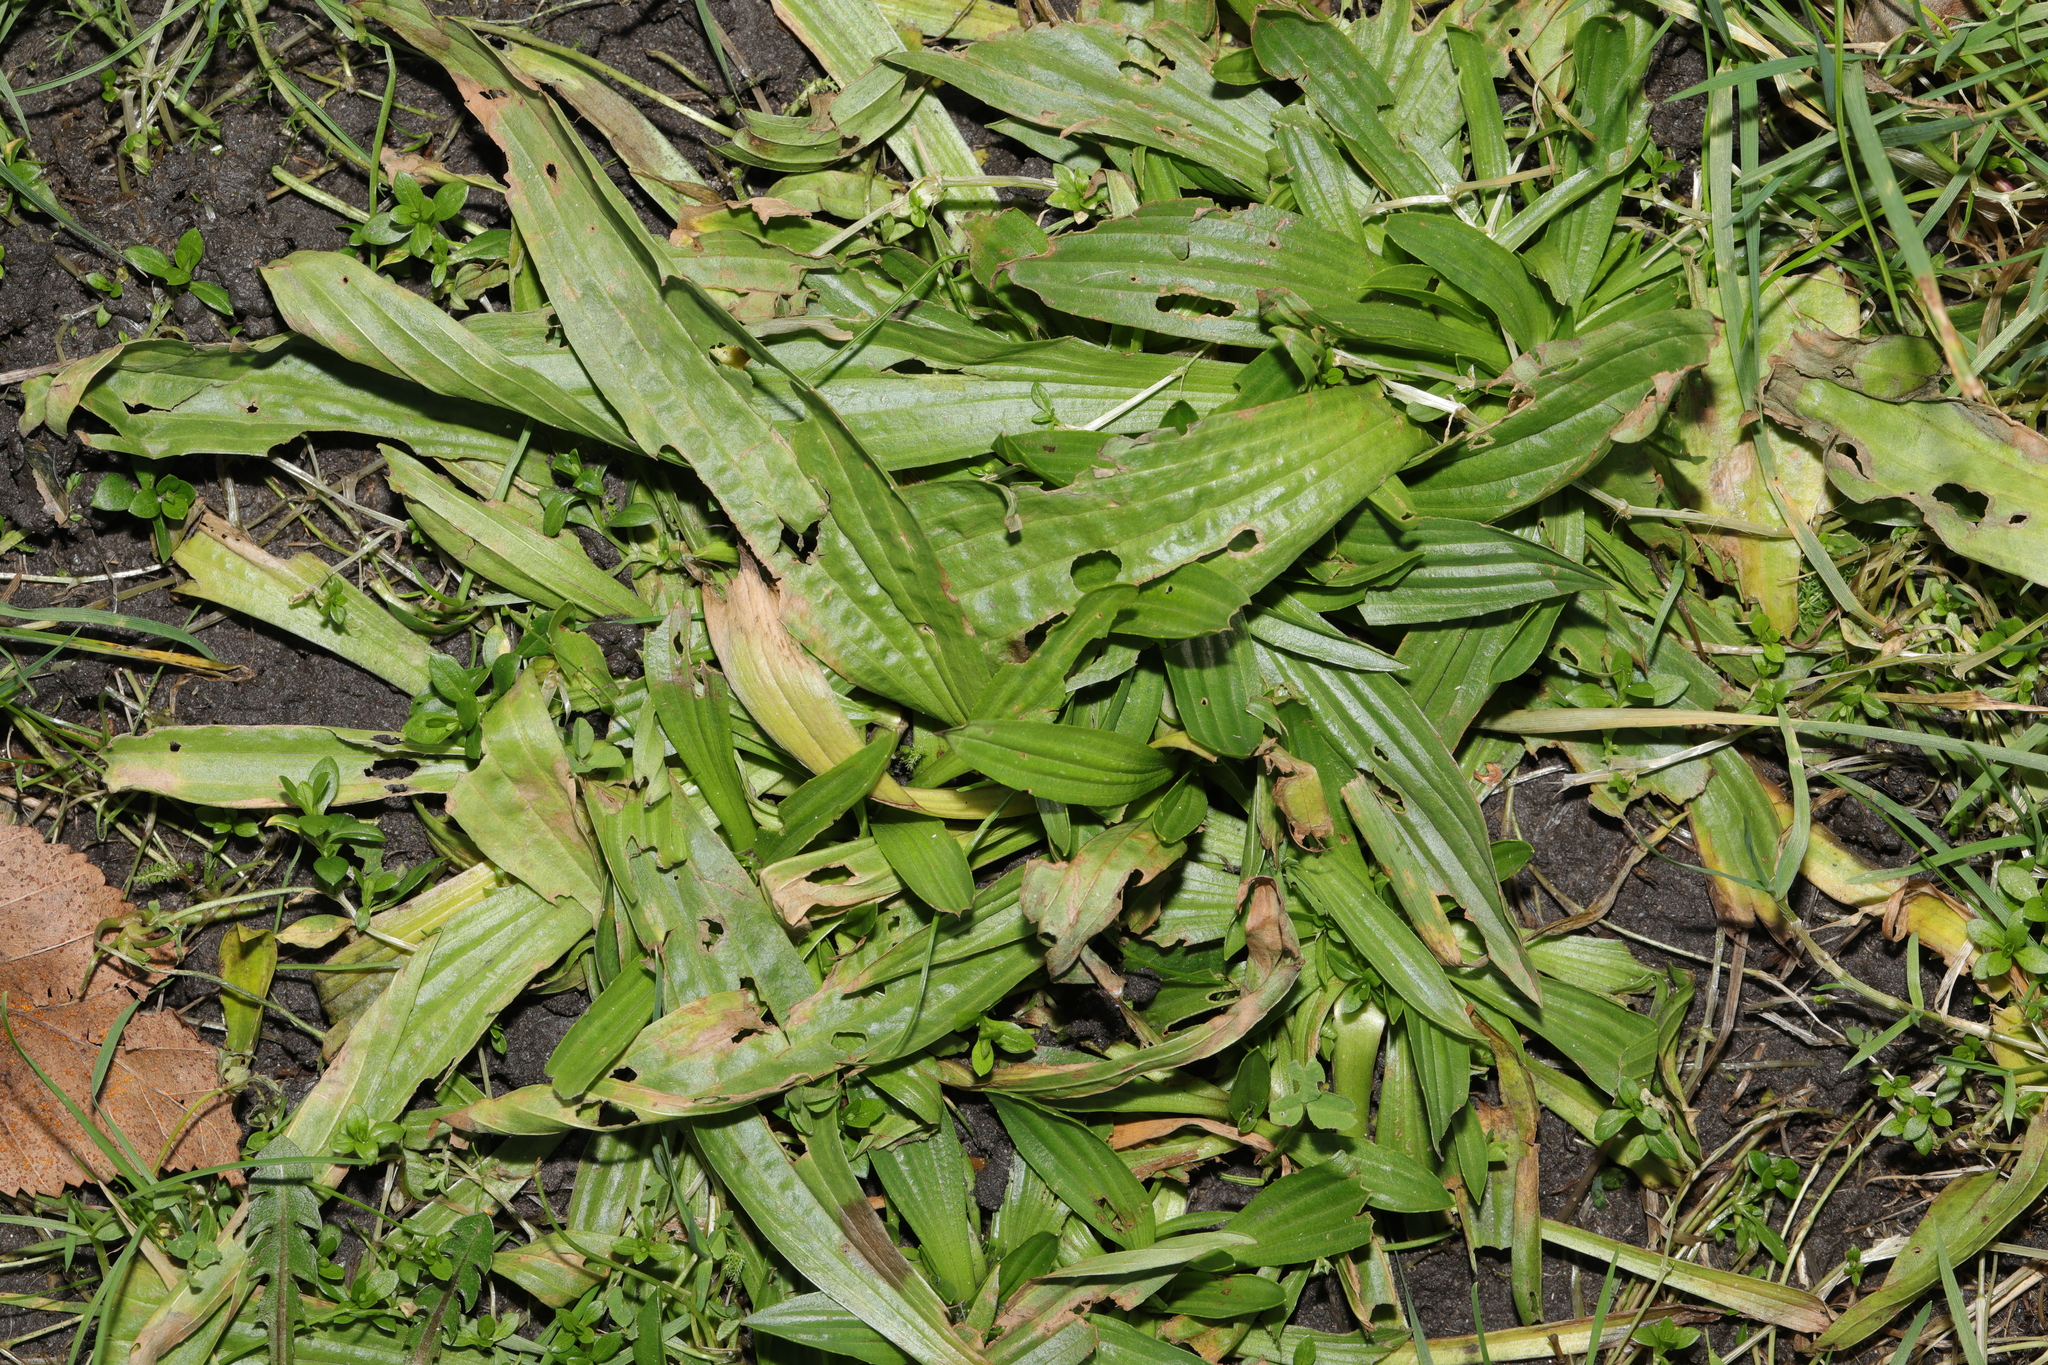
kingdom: Plantae
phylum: Tracheophyta
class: Magnoliopsida
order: Lamiales
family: Plantaginaceae
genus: Plantago
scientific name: Plantago lanceolata
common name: Ribwort plantain
